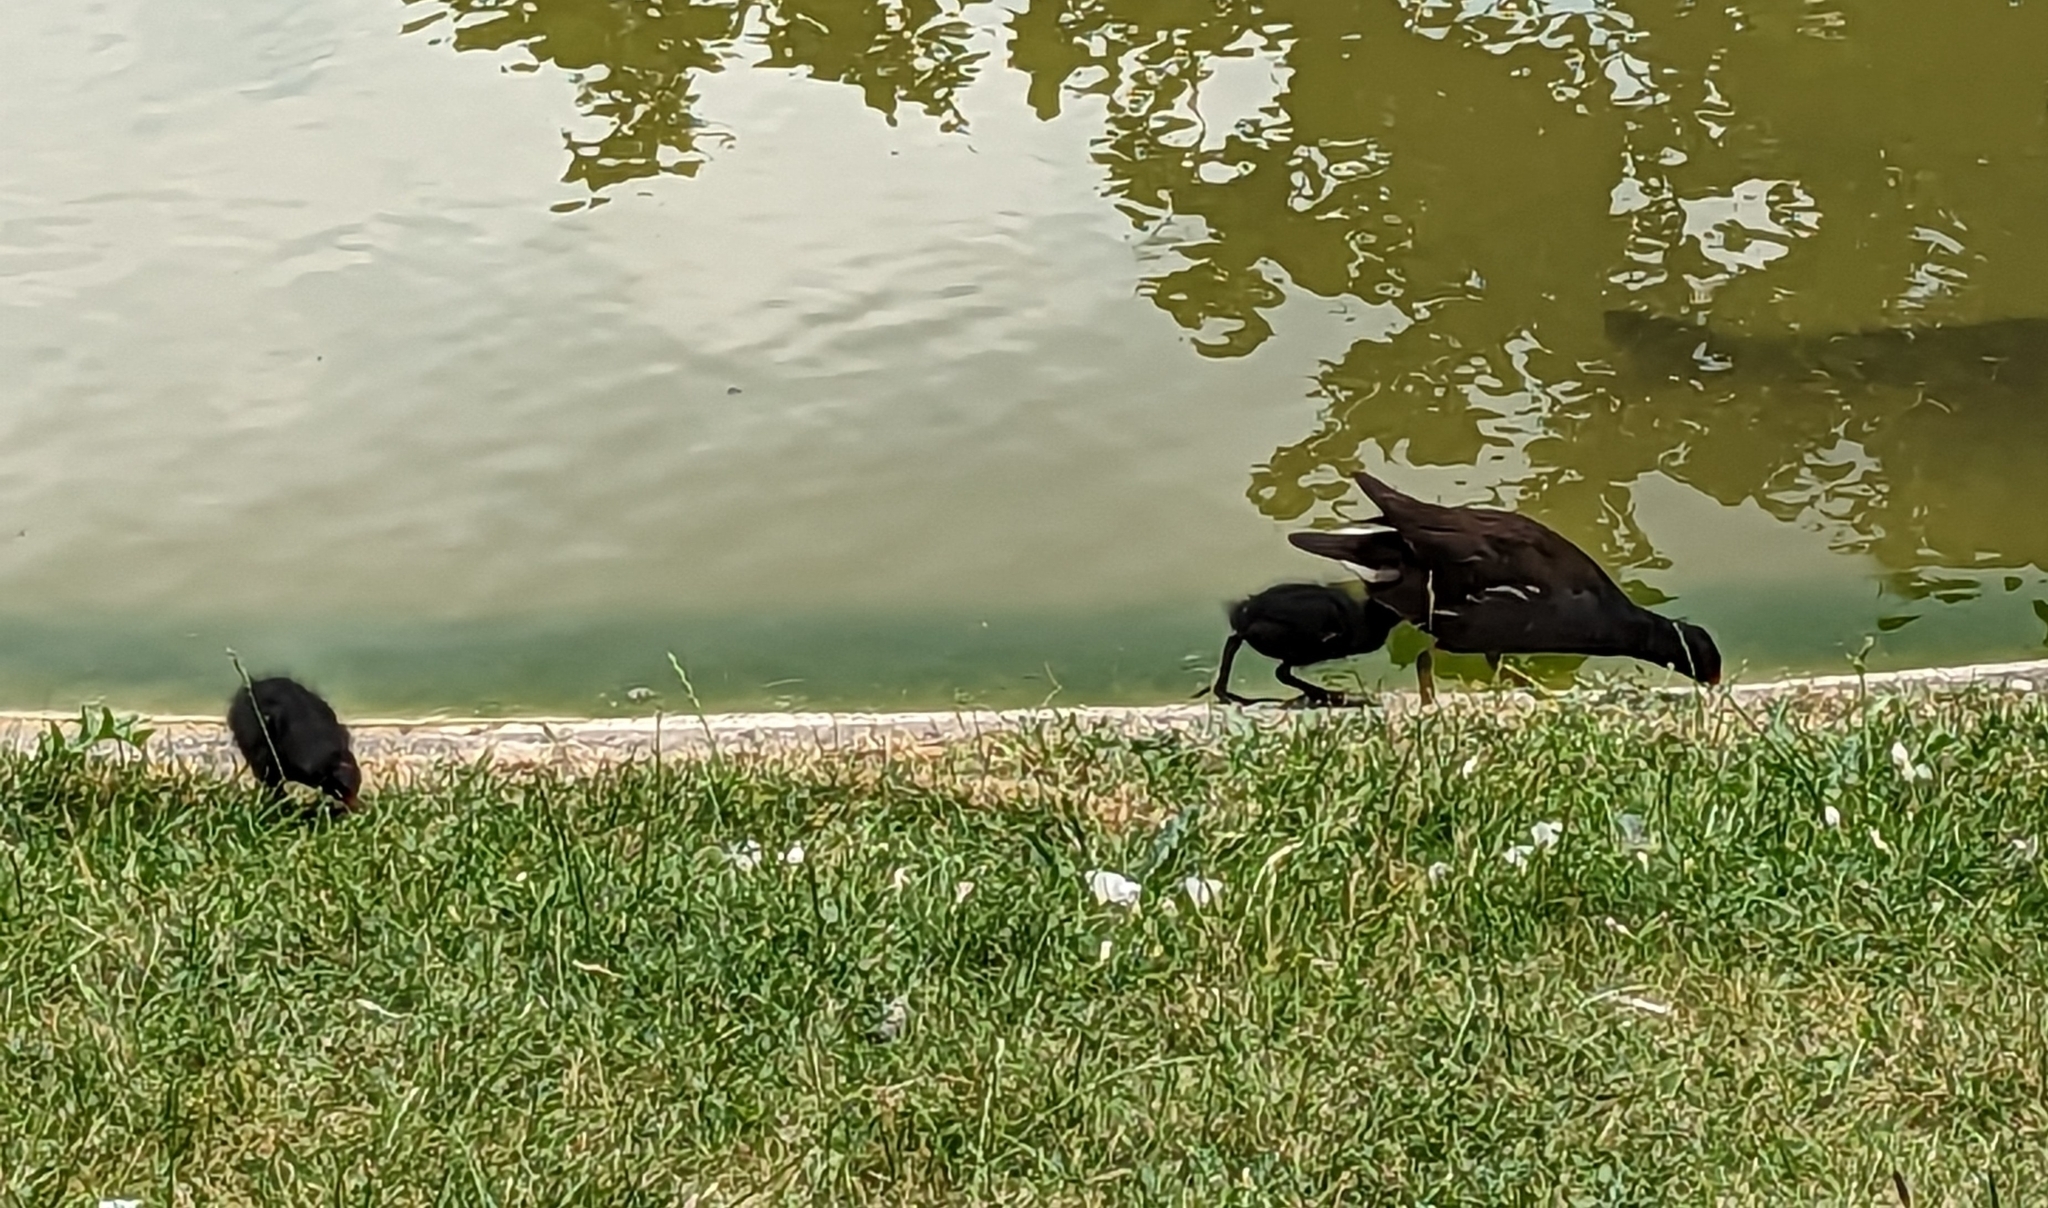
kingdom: Animalia
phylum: Chordata
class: Aves
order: Gruiformes
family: Rallidae
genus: Gallinula
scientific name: Gallinula chloropus
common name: Common moorhen
